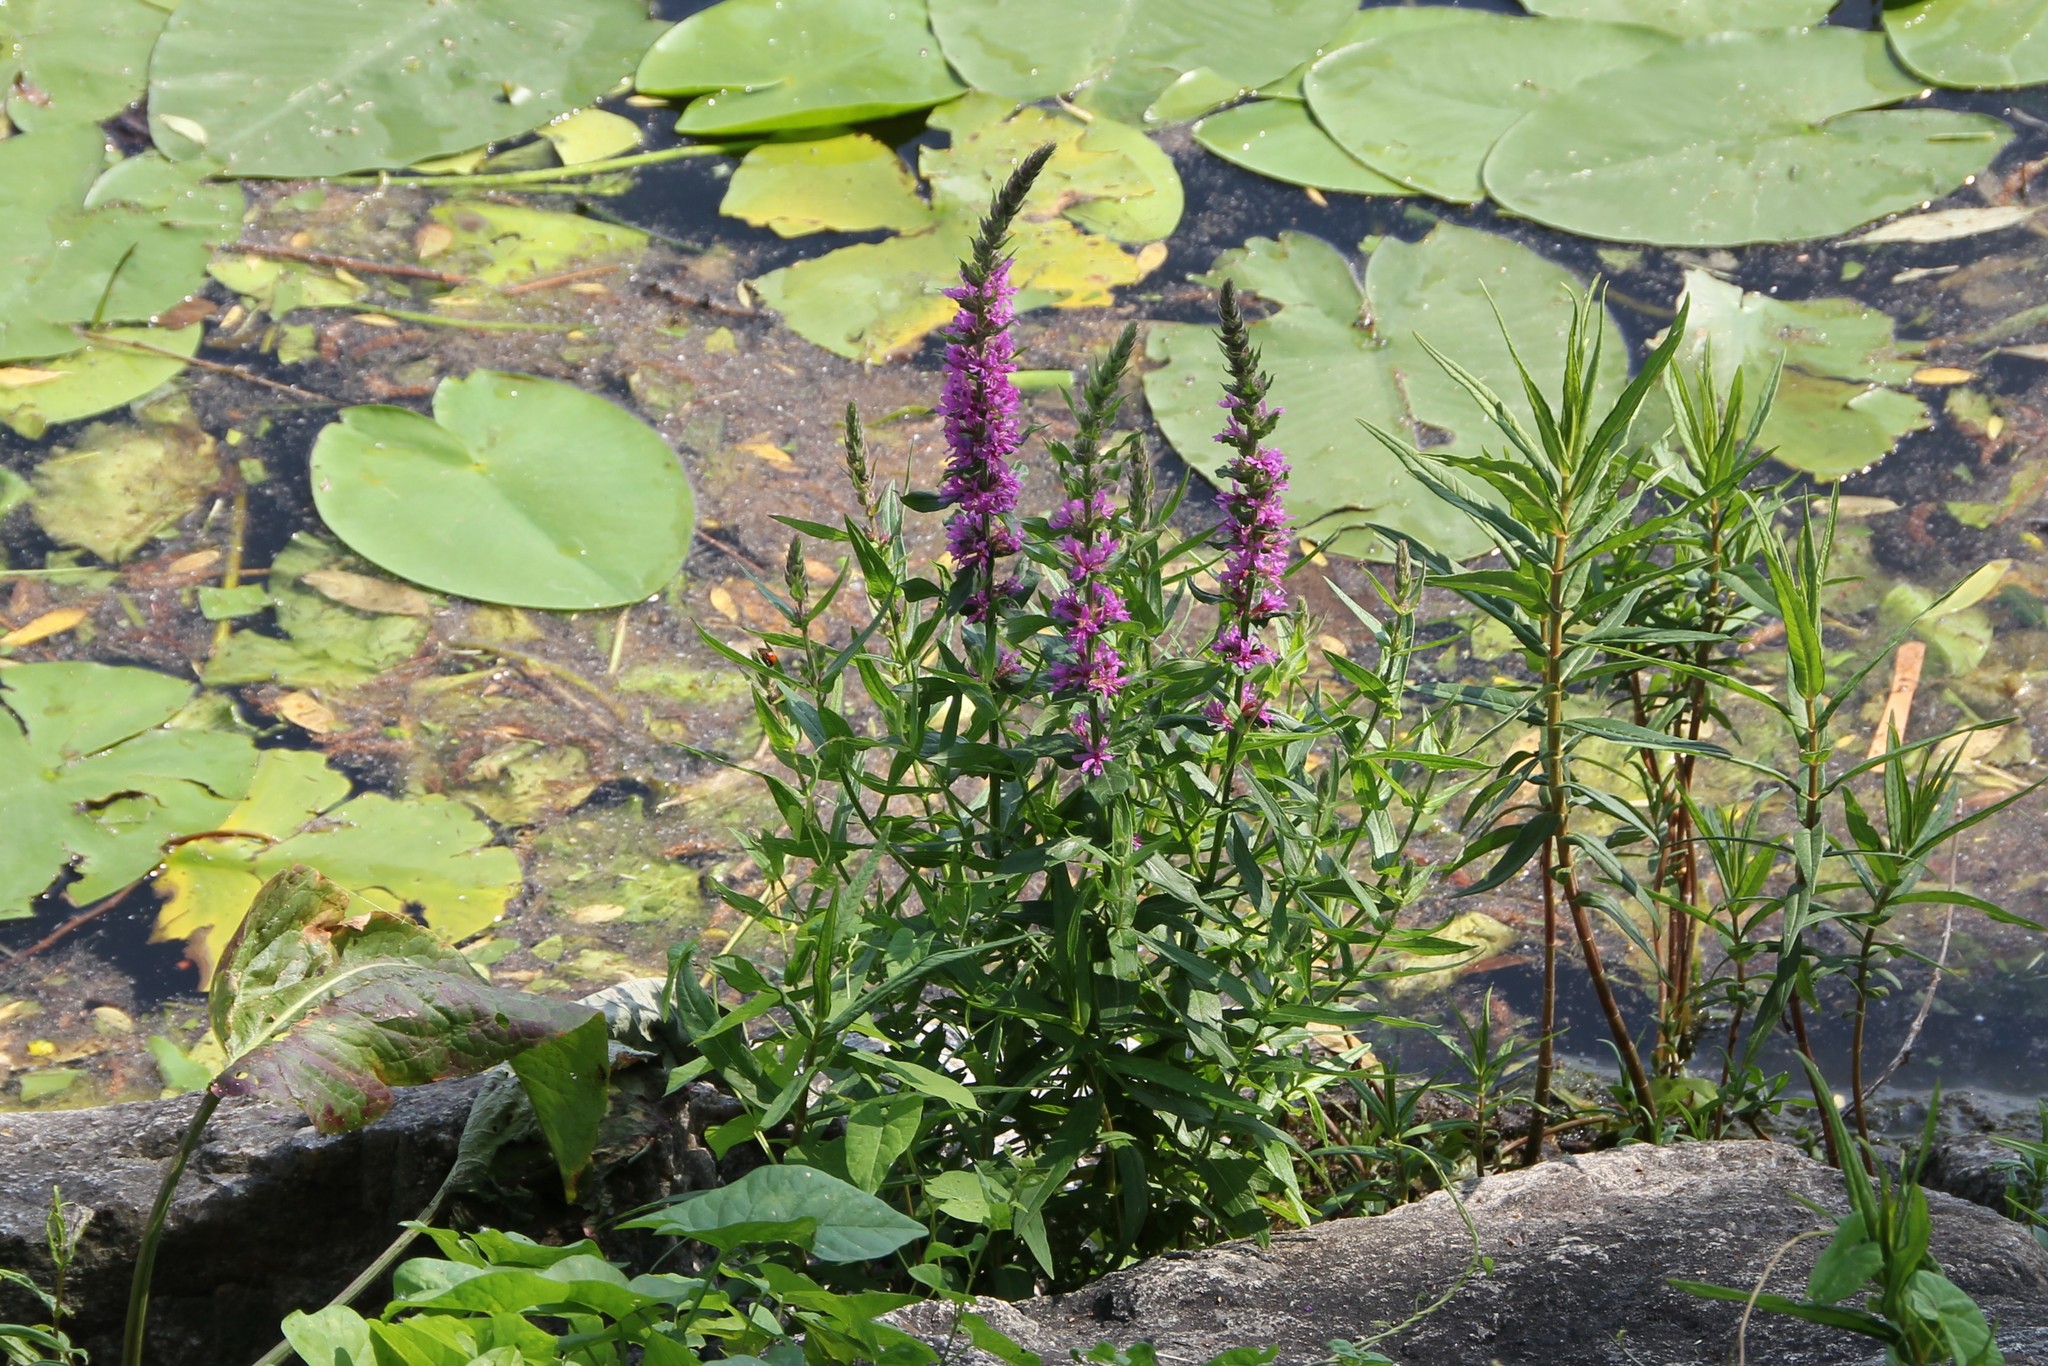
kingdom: Plantae
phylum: Tracheophyta
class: Magnoliopsida
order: Myrtales
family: Lythraceae
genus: Lythrum
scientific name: Lythrum salicaria
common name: Purple loosestrife
